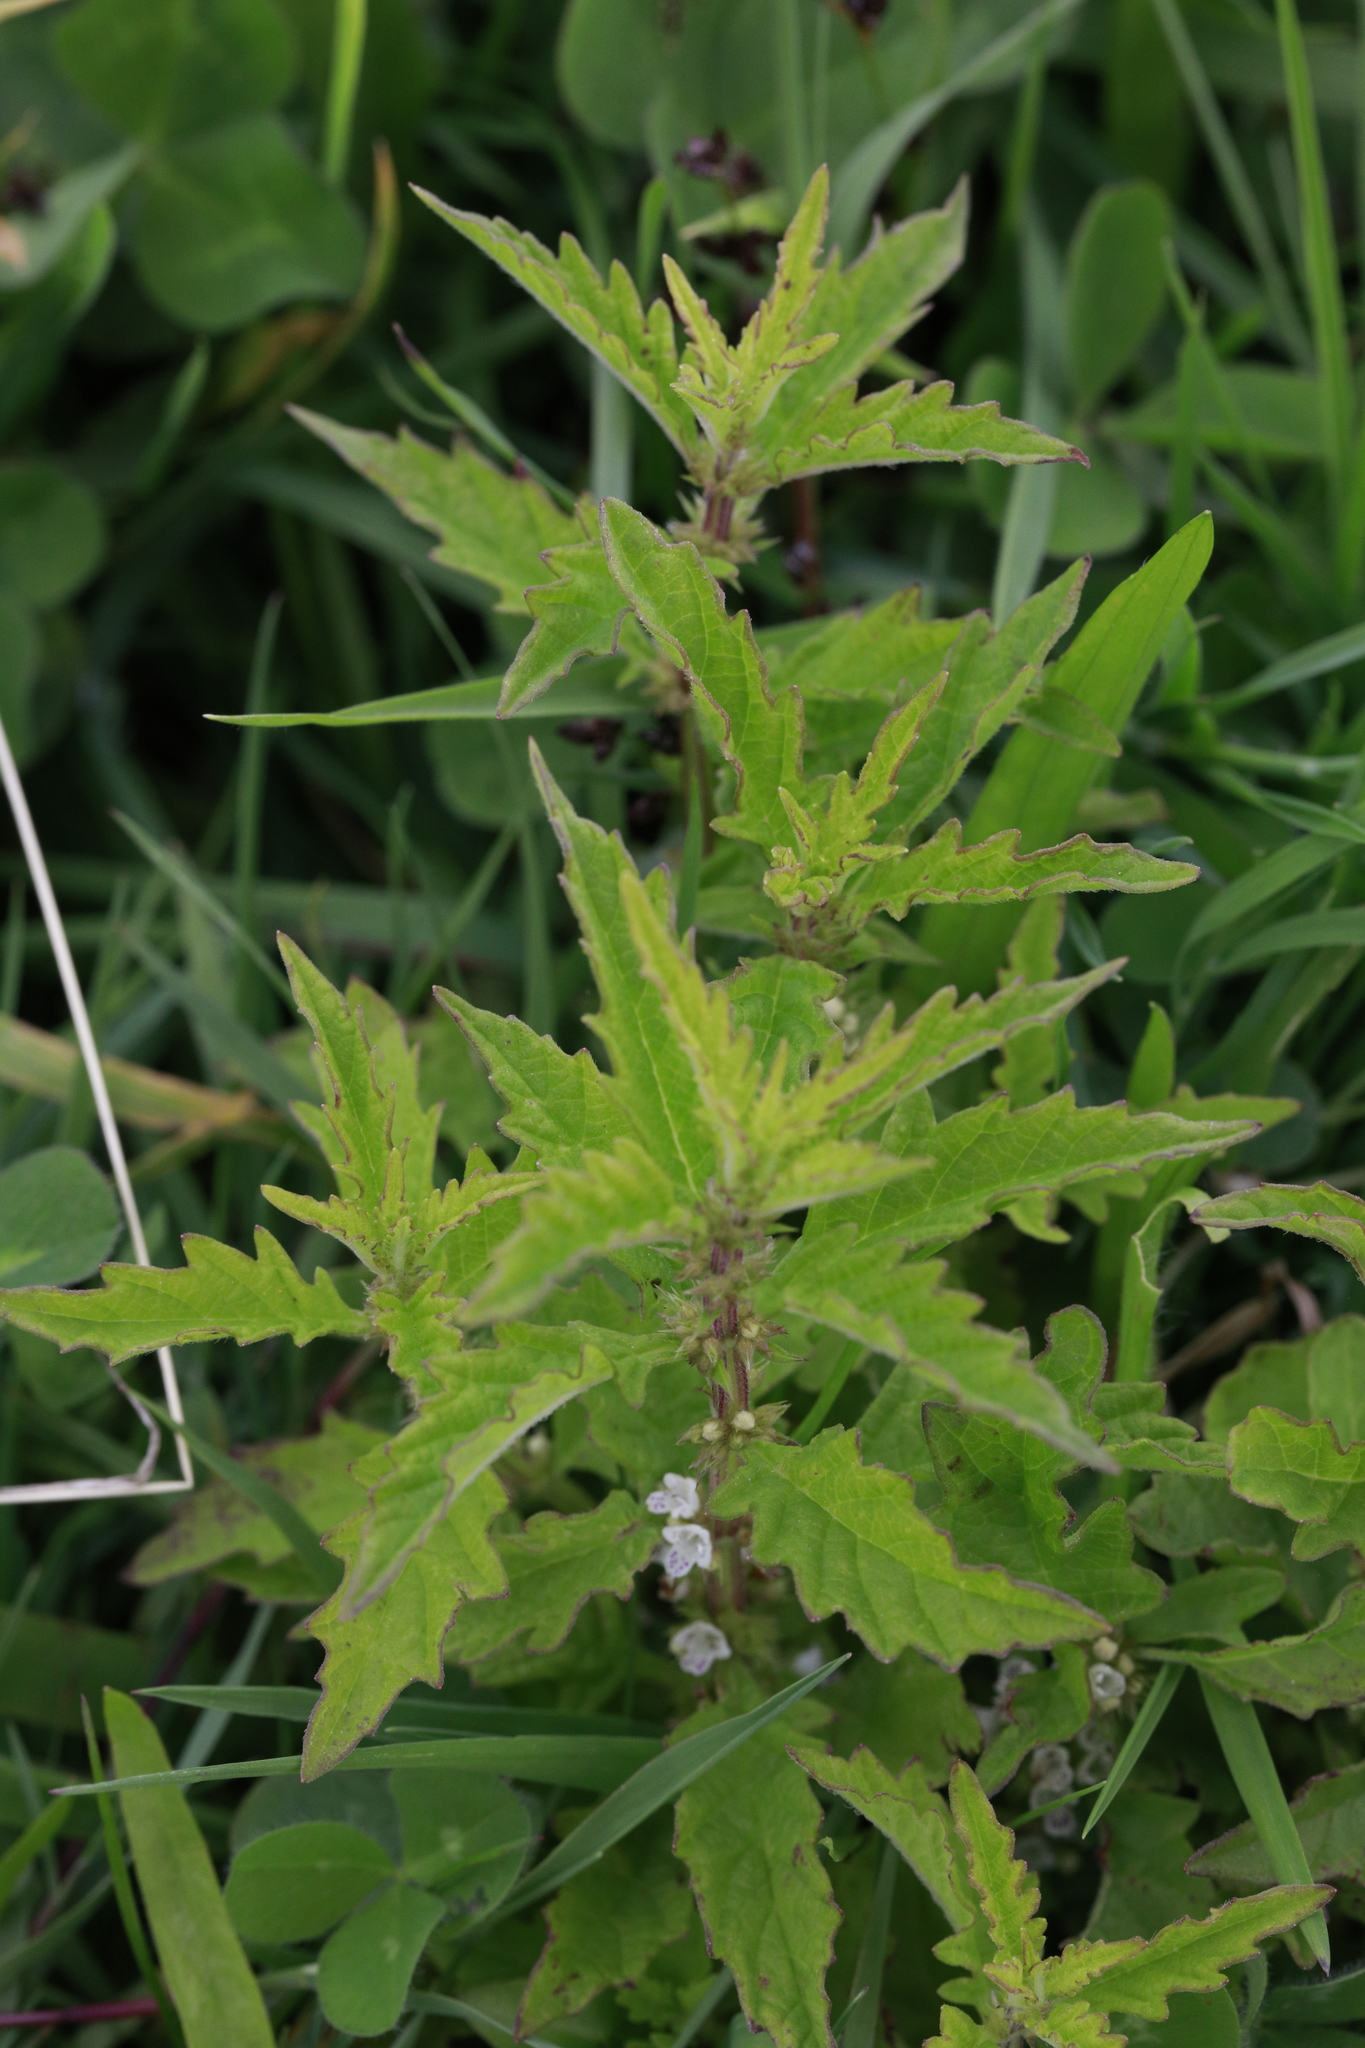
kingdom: Plantae
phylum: Tracheophyta
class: Magnoliopsida
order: Lamiales
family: Lamiaceae
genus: Lycopus
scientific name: Lycopus europaeus
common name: European bugleweed
